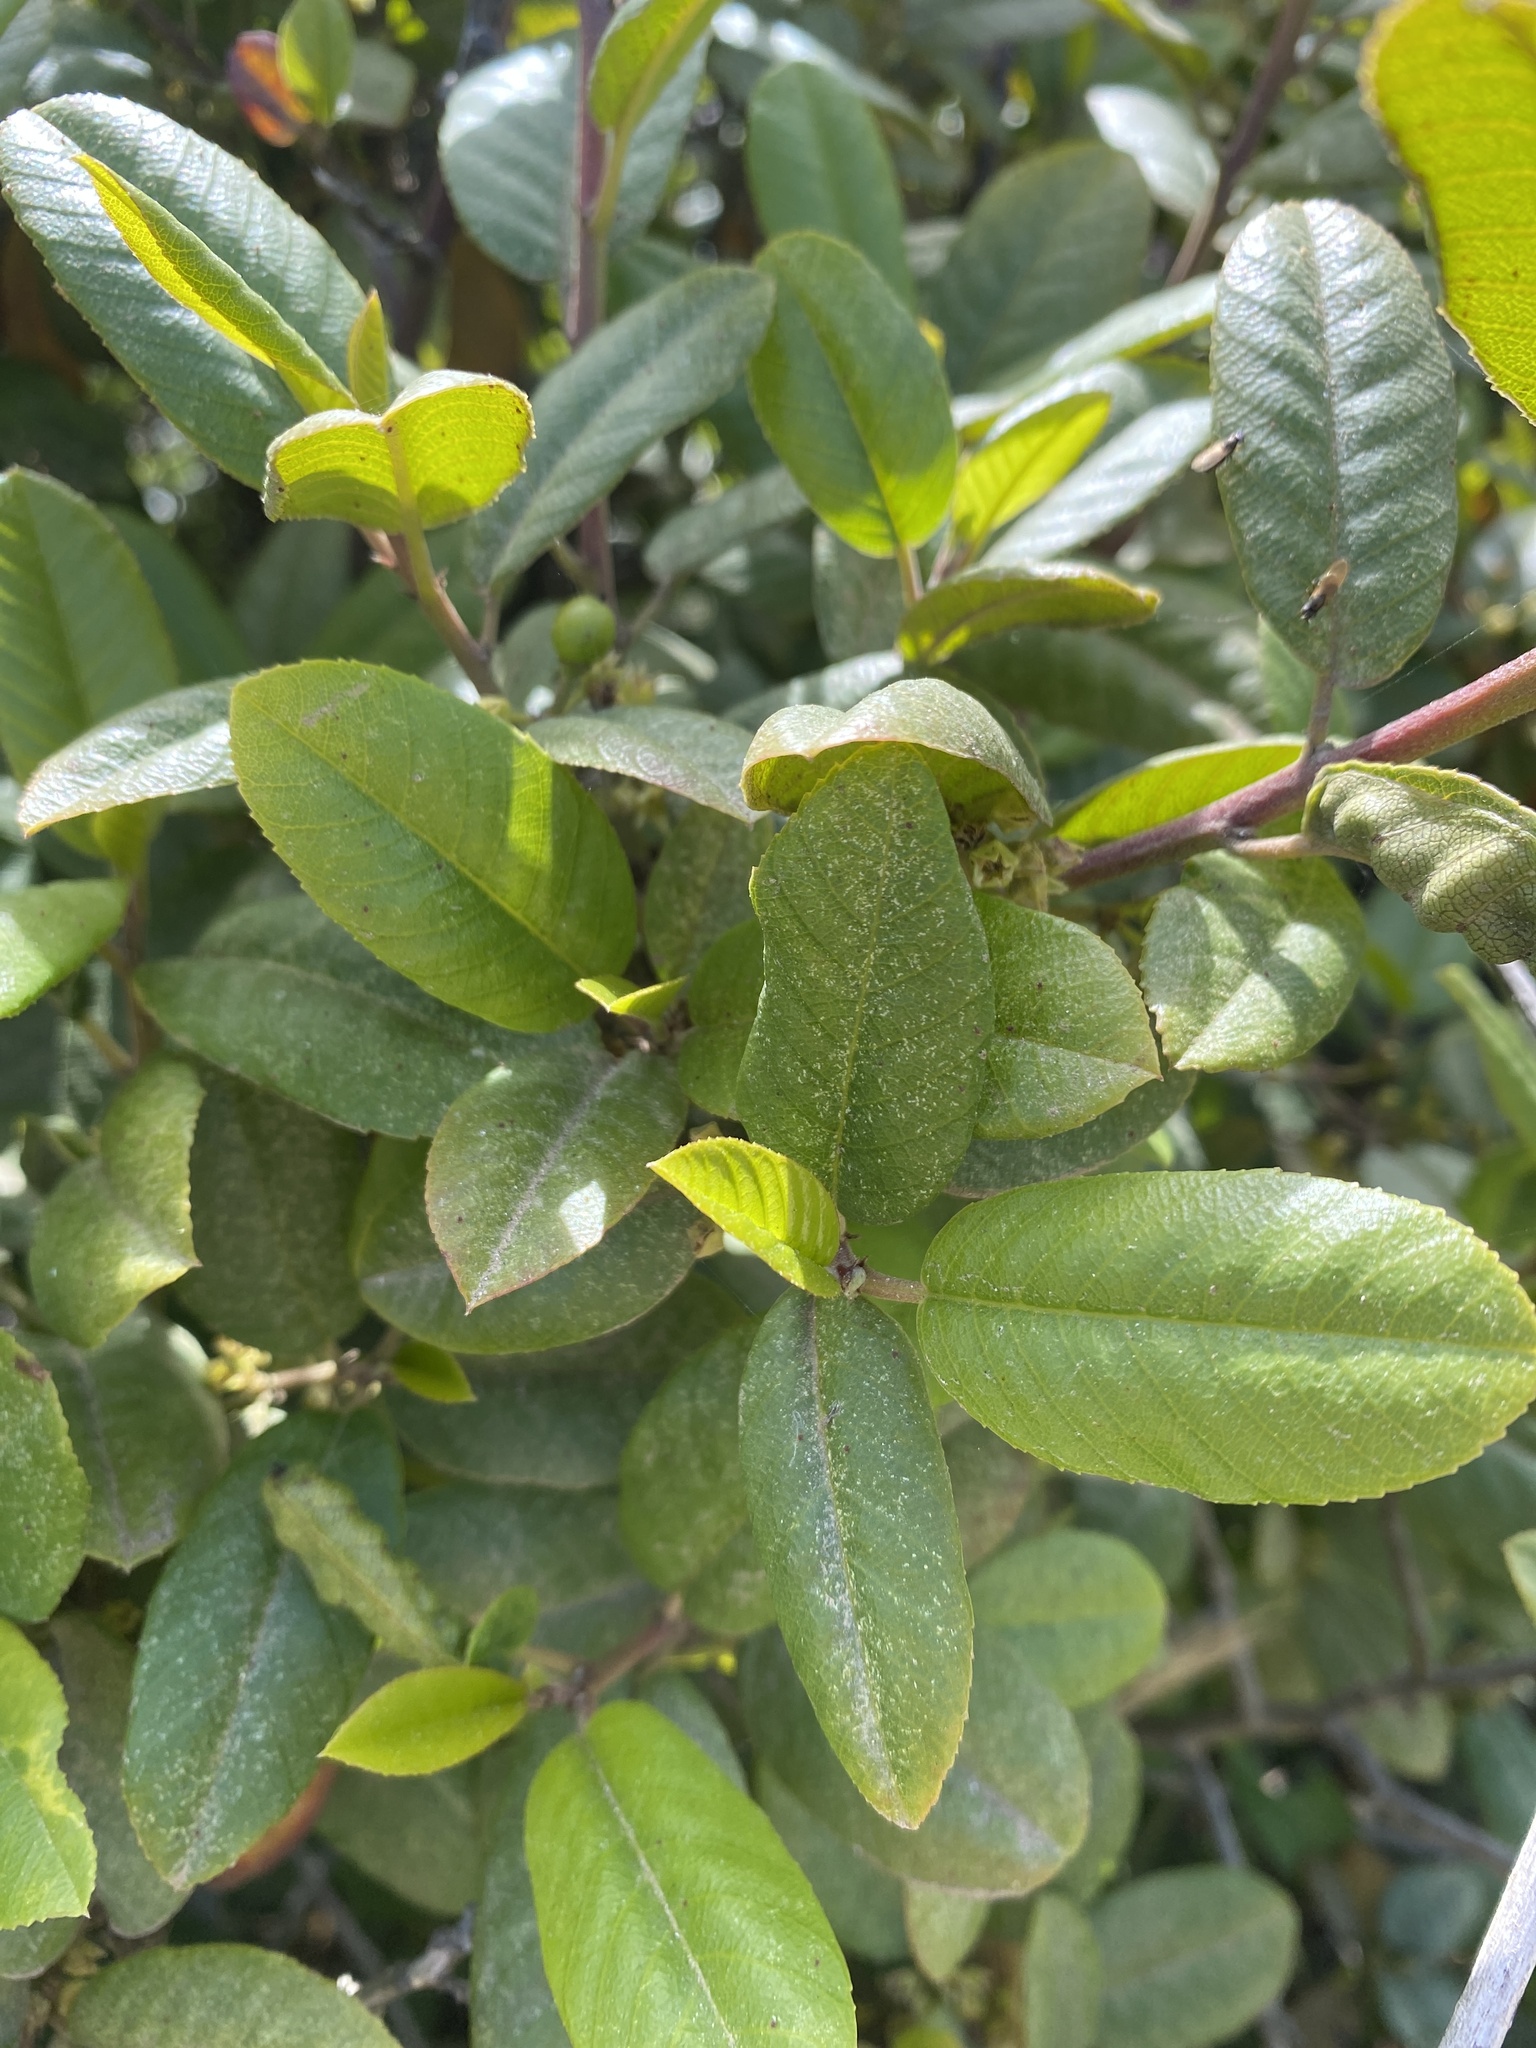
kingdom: Plantae
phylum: Tracheophyta
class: Magnoliopsida
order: Rosales
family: Rhamnaceae
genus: Frangula
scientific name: Frangula californica
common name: California buckthorn
